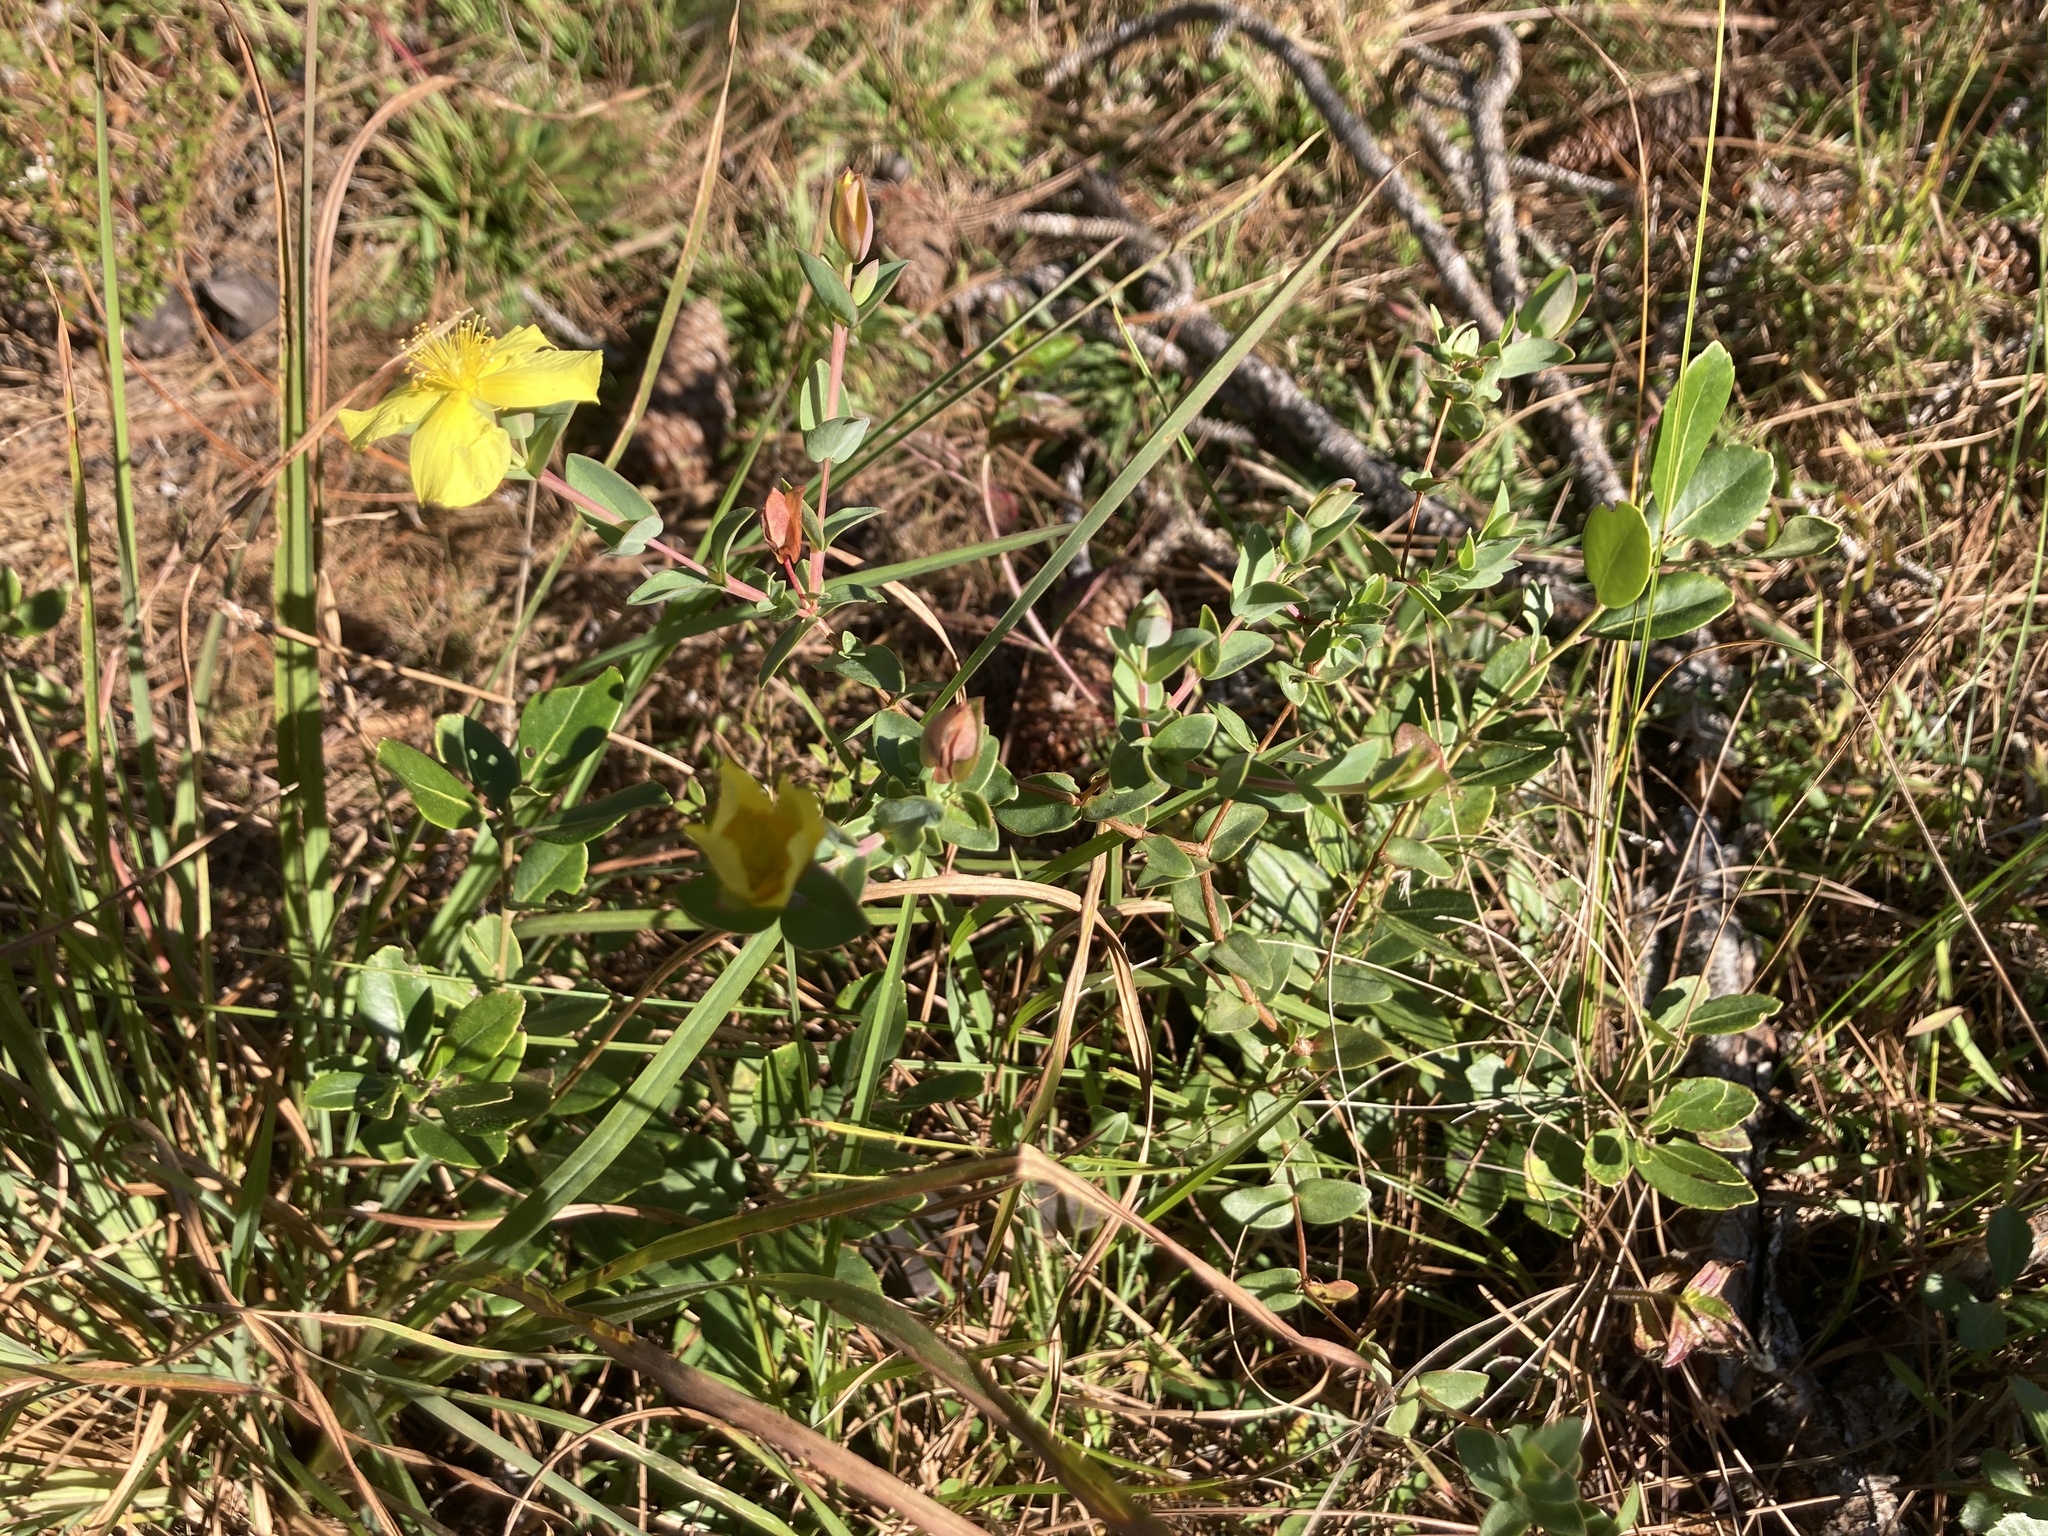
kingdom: Plantae
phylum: Tracheophyta
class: Magnoliopsida
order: Malpighiales
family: Hypericaceae
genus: Hypericum
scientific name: Hypericum tetrapetalum
